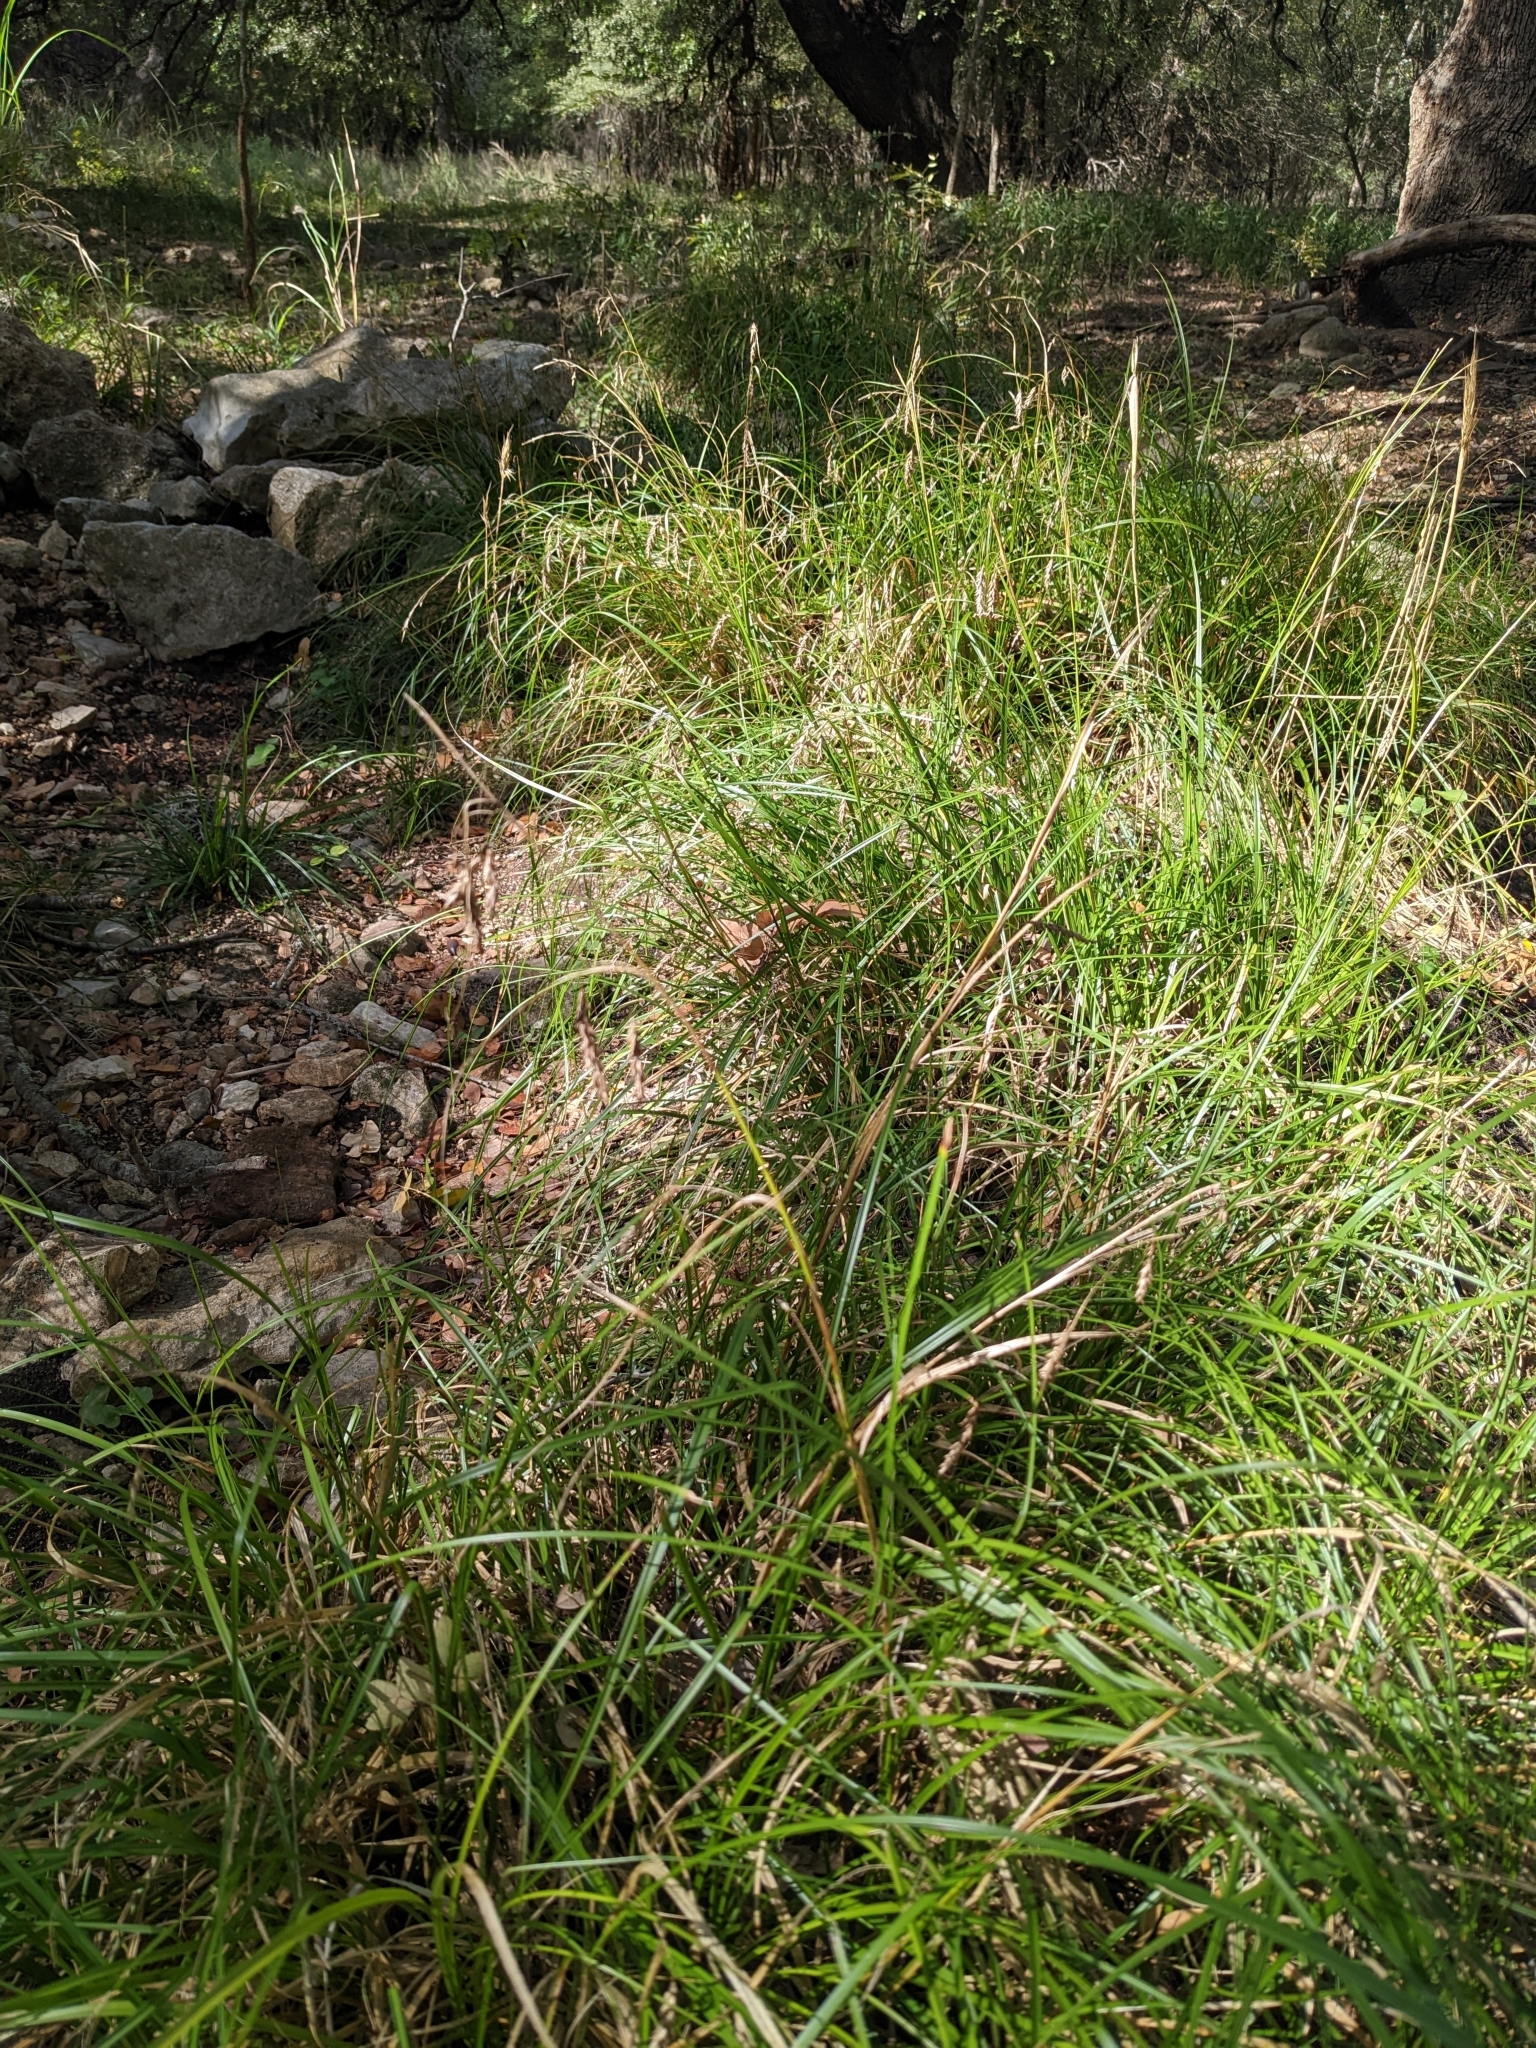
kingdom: Plantae
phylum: Tracheophyta
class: Liliopsida
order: Poales
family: Cyperaceae
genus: Carex
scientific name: Carex cherokeensis
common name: Cherokee sedge
